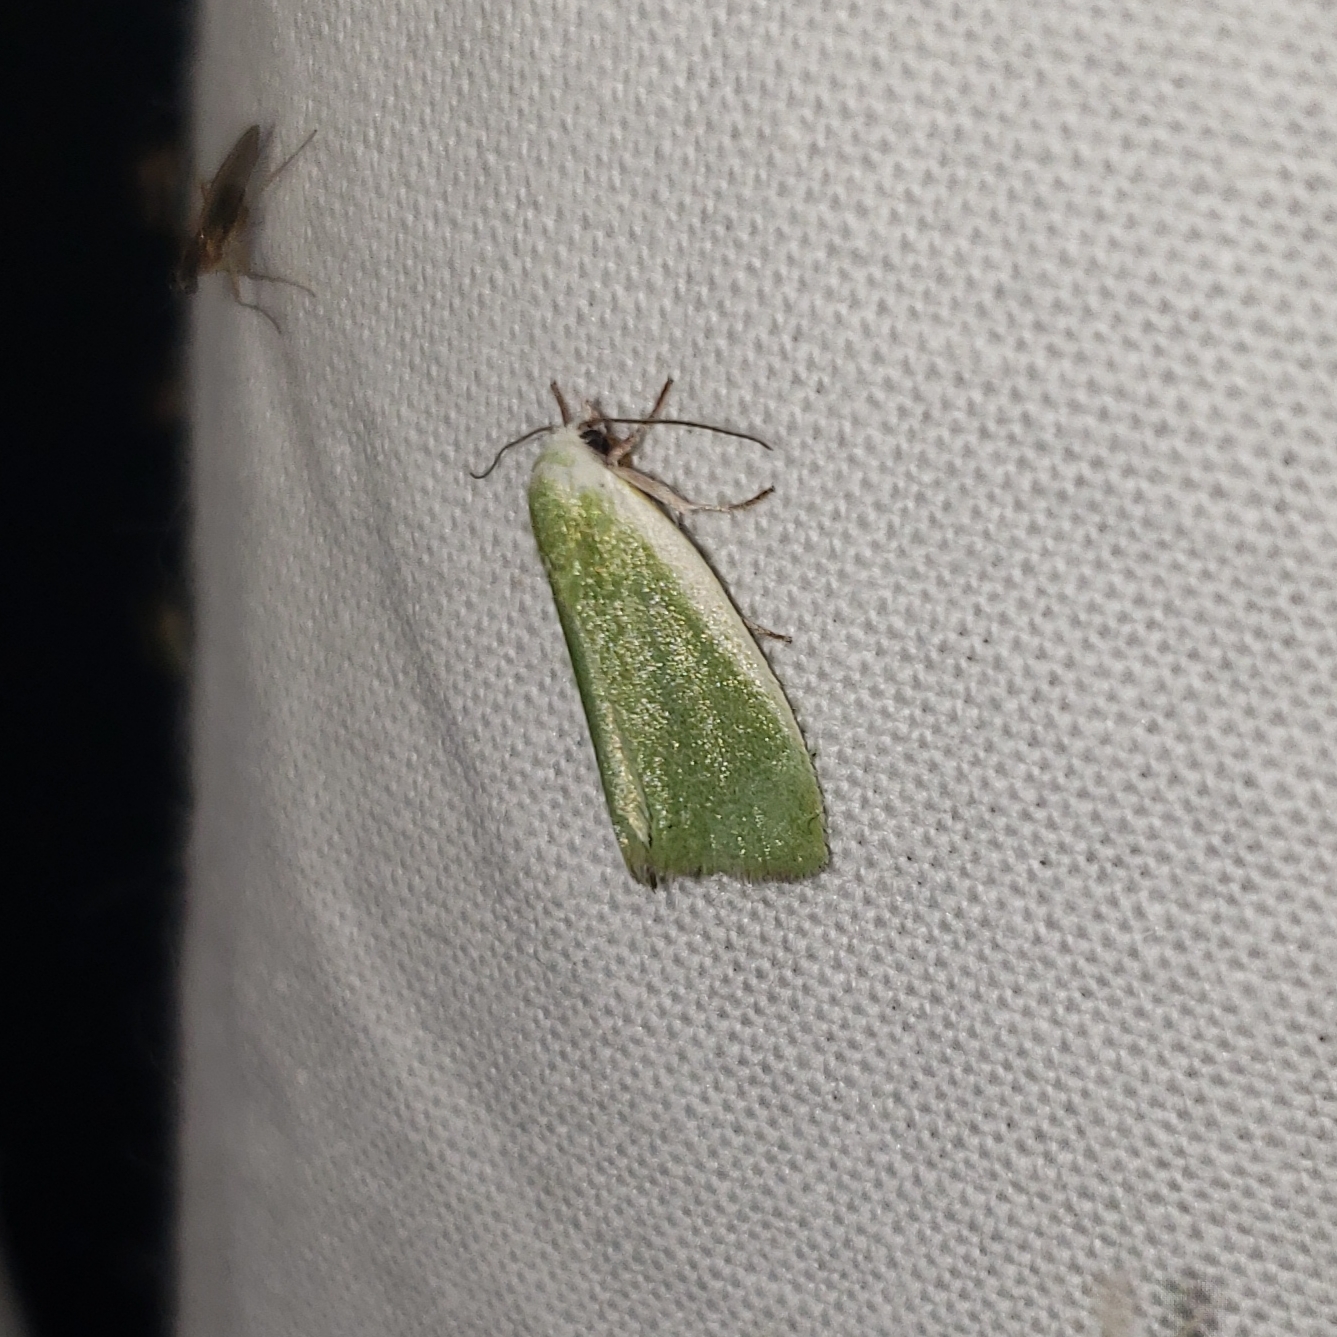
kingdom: Animalia
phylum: Arthropoda
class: Insecta
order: Lepidoptera
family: Nolidae
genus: Earias
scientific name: Earias clorana
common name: Cream-bordered green pea
